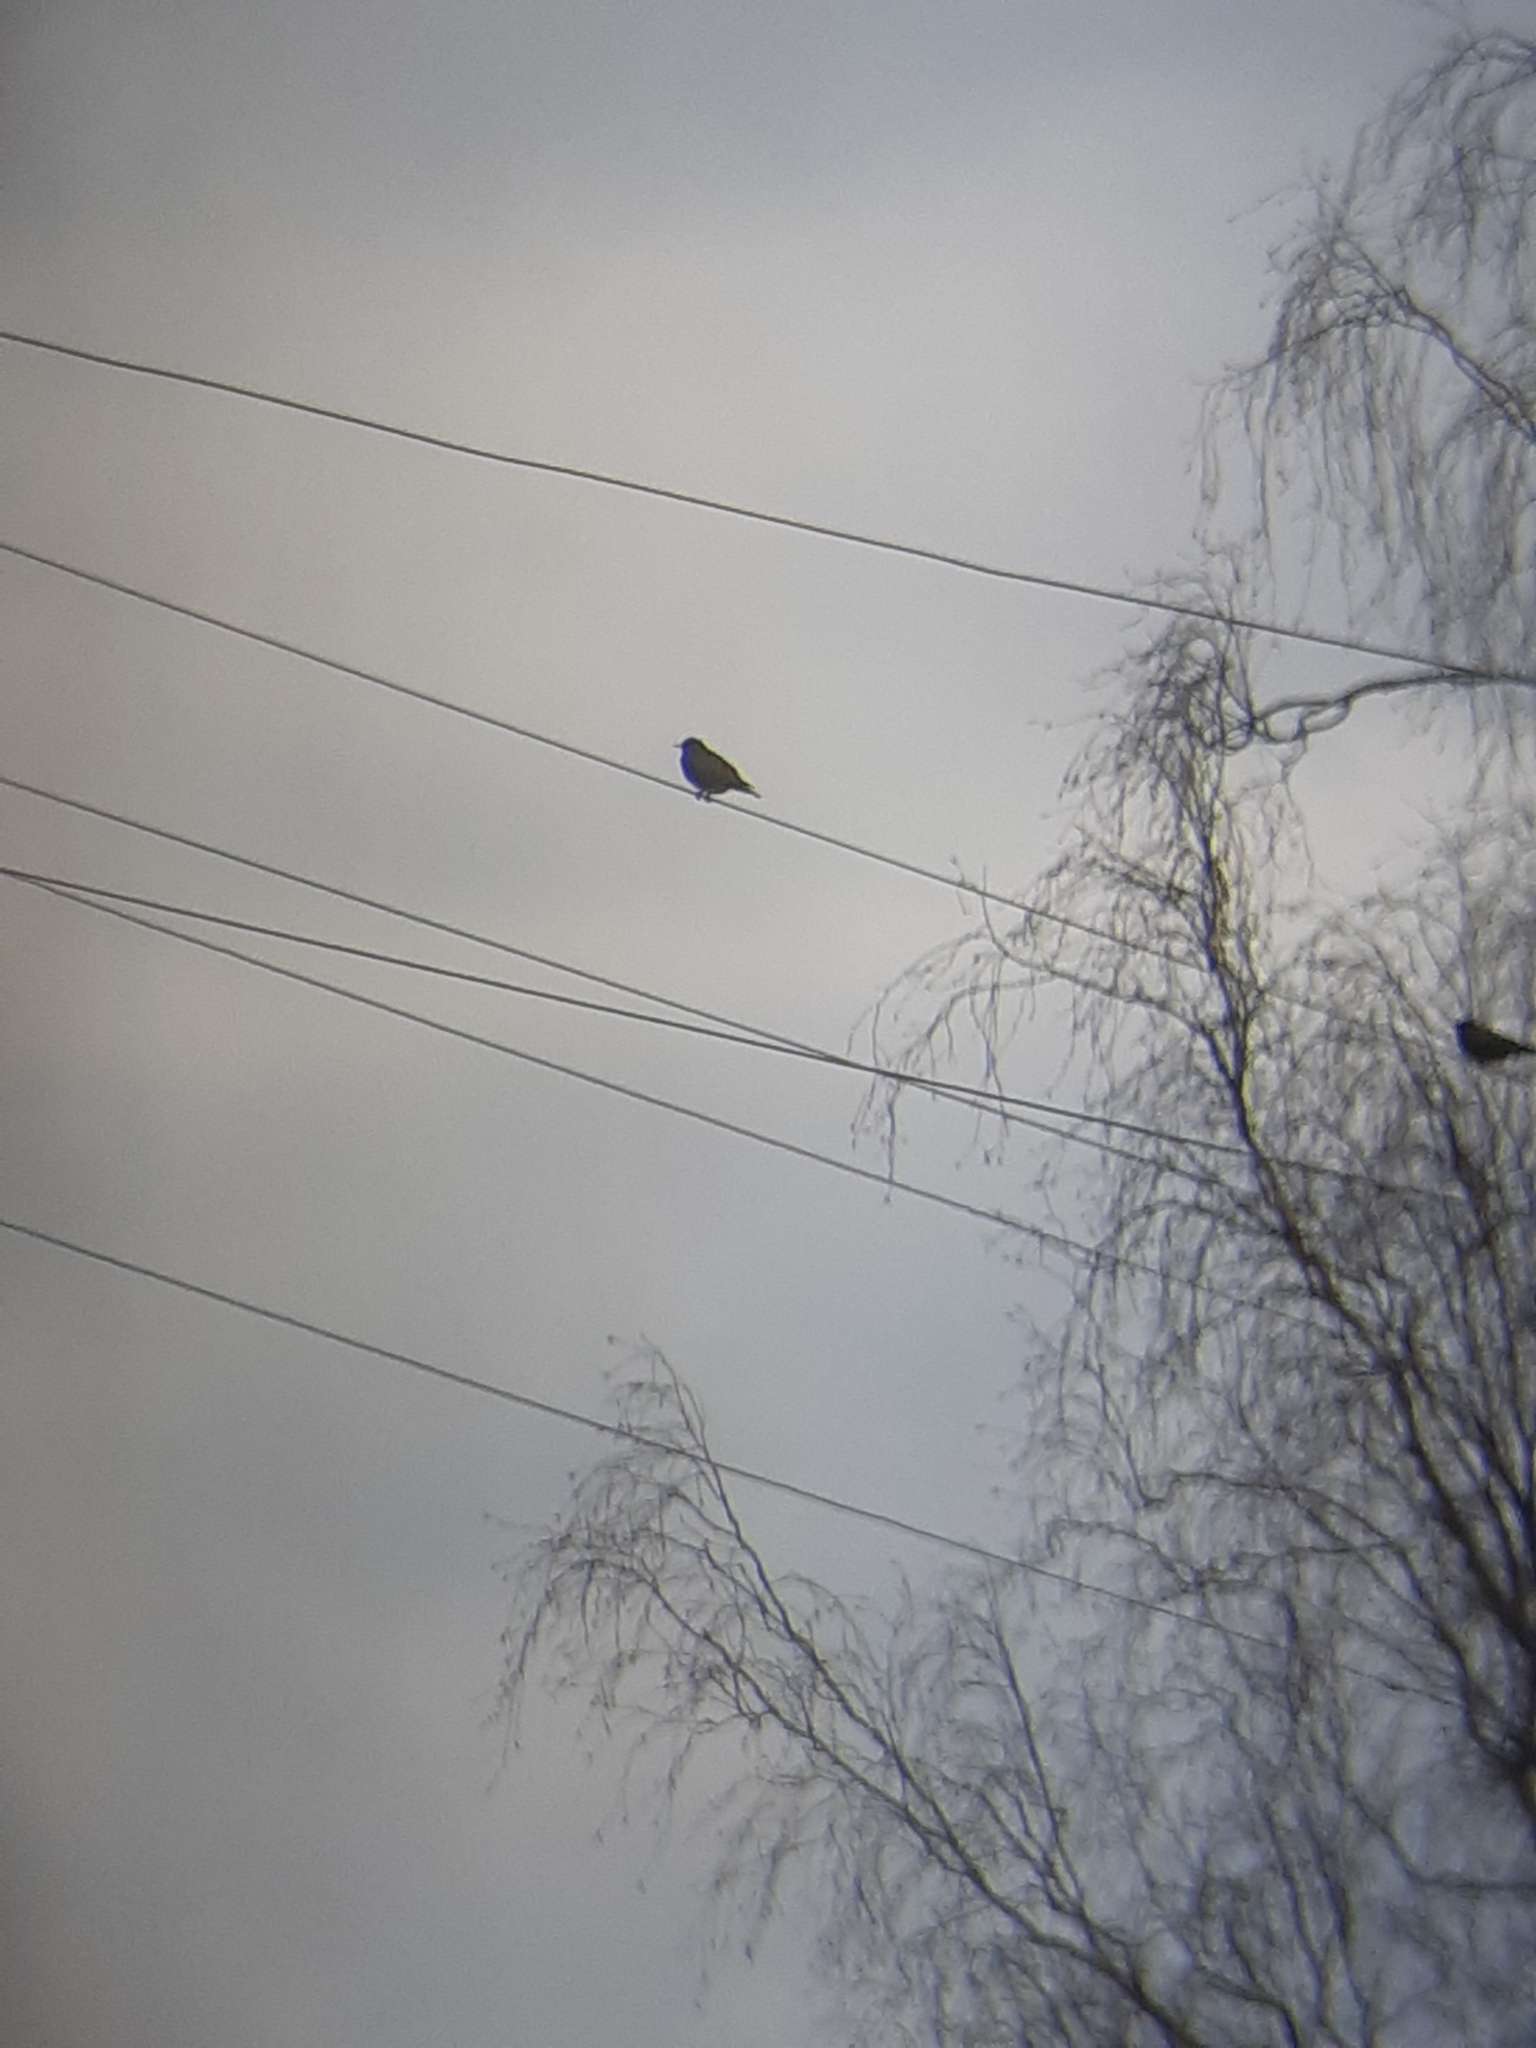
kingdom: Animalia
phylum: Chordata
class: Aves
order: Passeriformes
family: Sturnidae
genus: Sturnus
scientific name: Sturnus vulgaris
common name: Common starling
